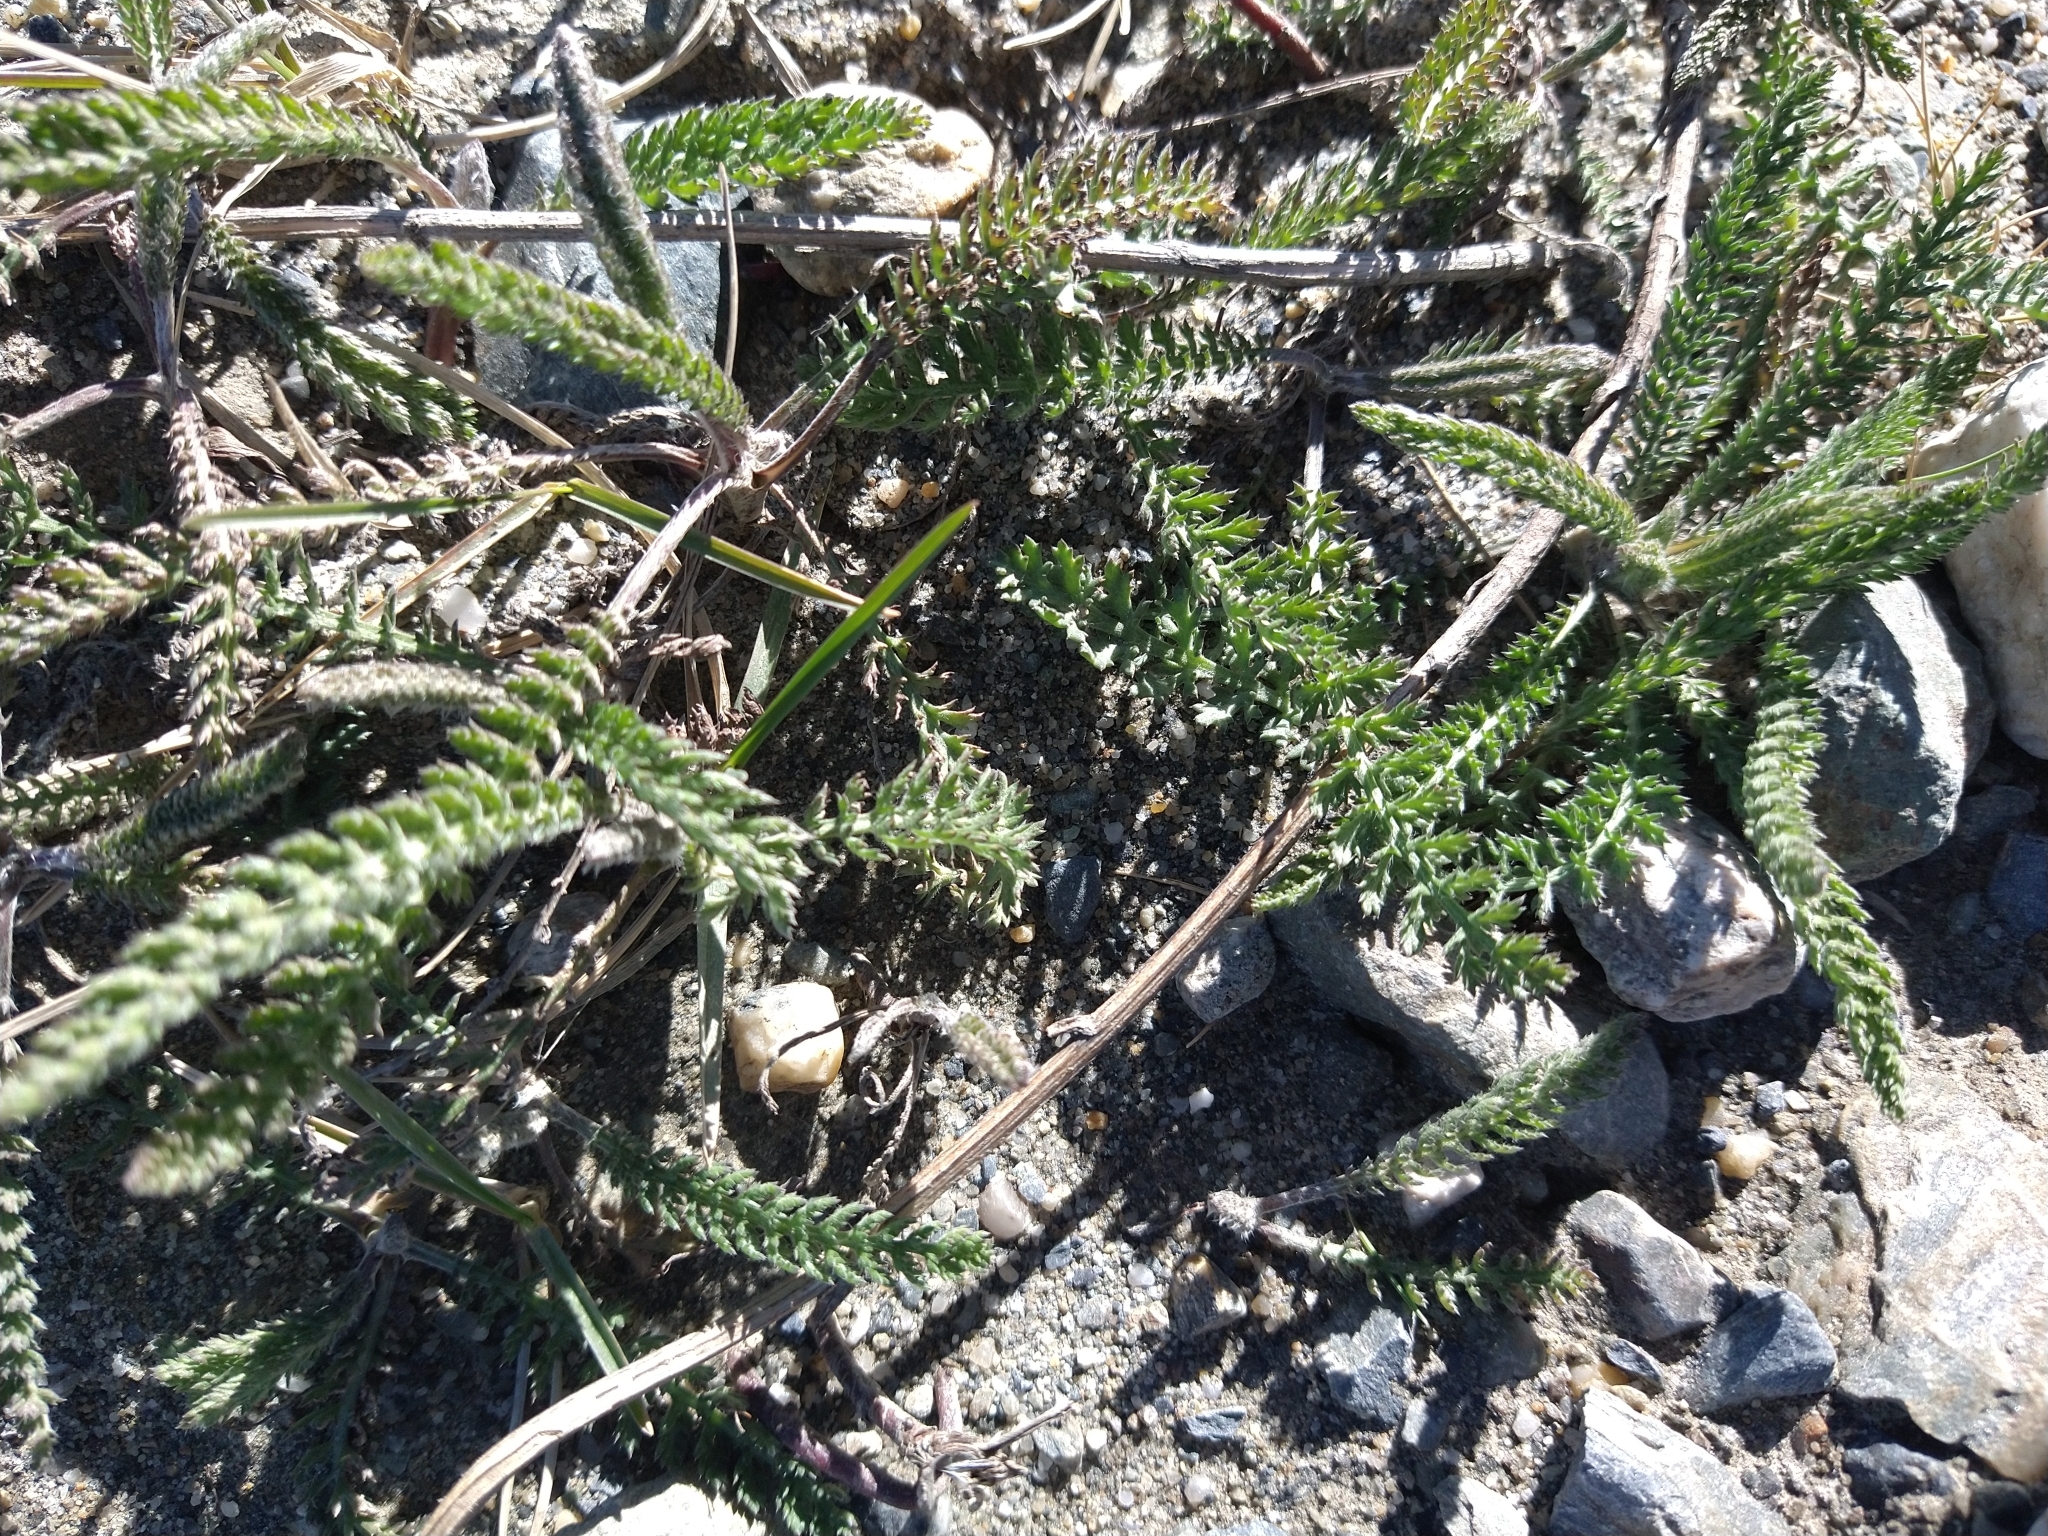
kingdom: Plantae
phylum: Tracheophyta
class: Magnoliopsida
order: Asterales
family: Asteraceae
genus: Achillea
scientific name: Achillea millefolium
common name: Yarrow
